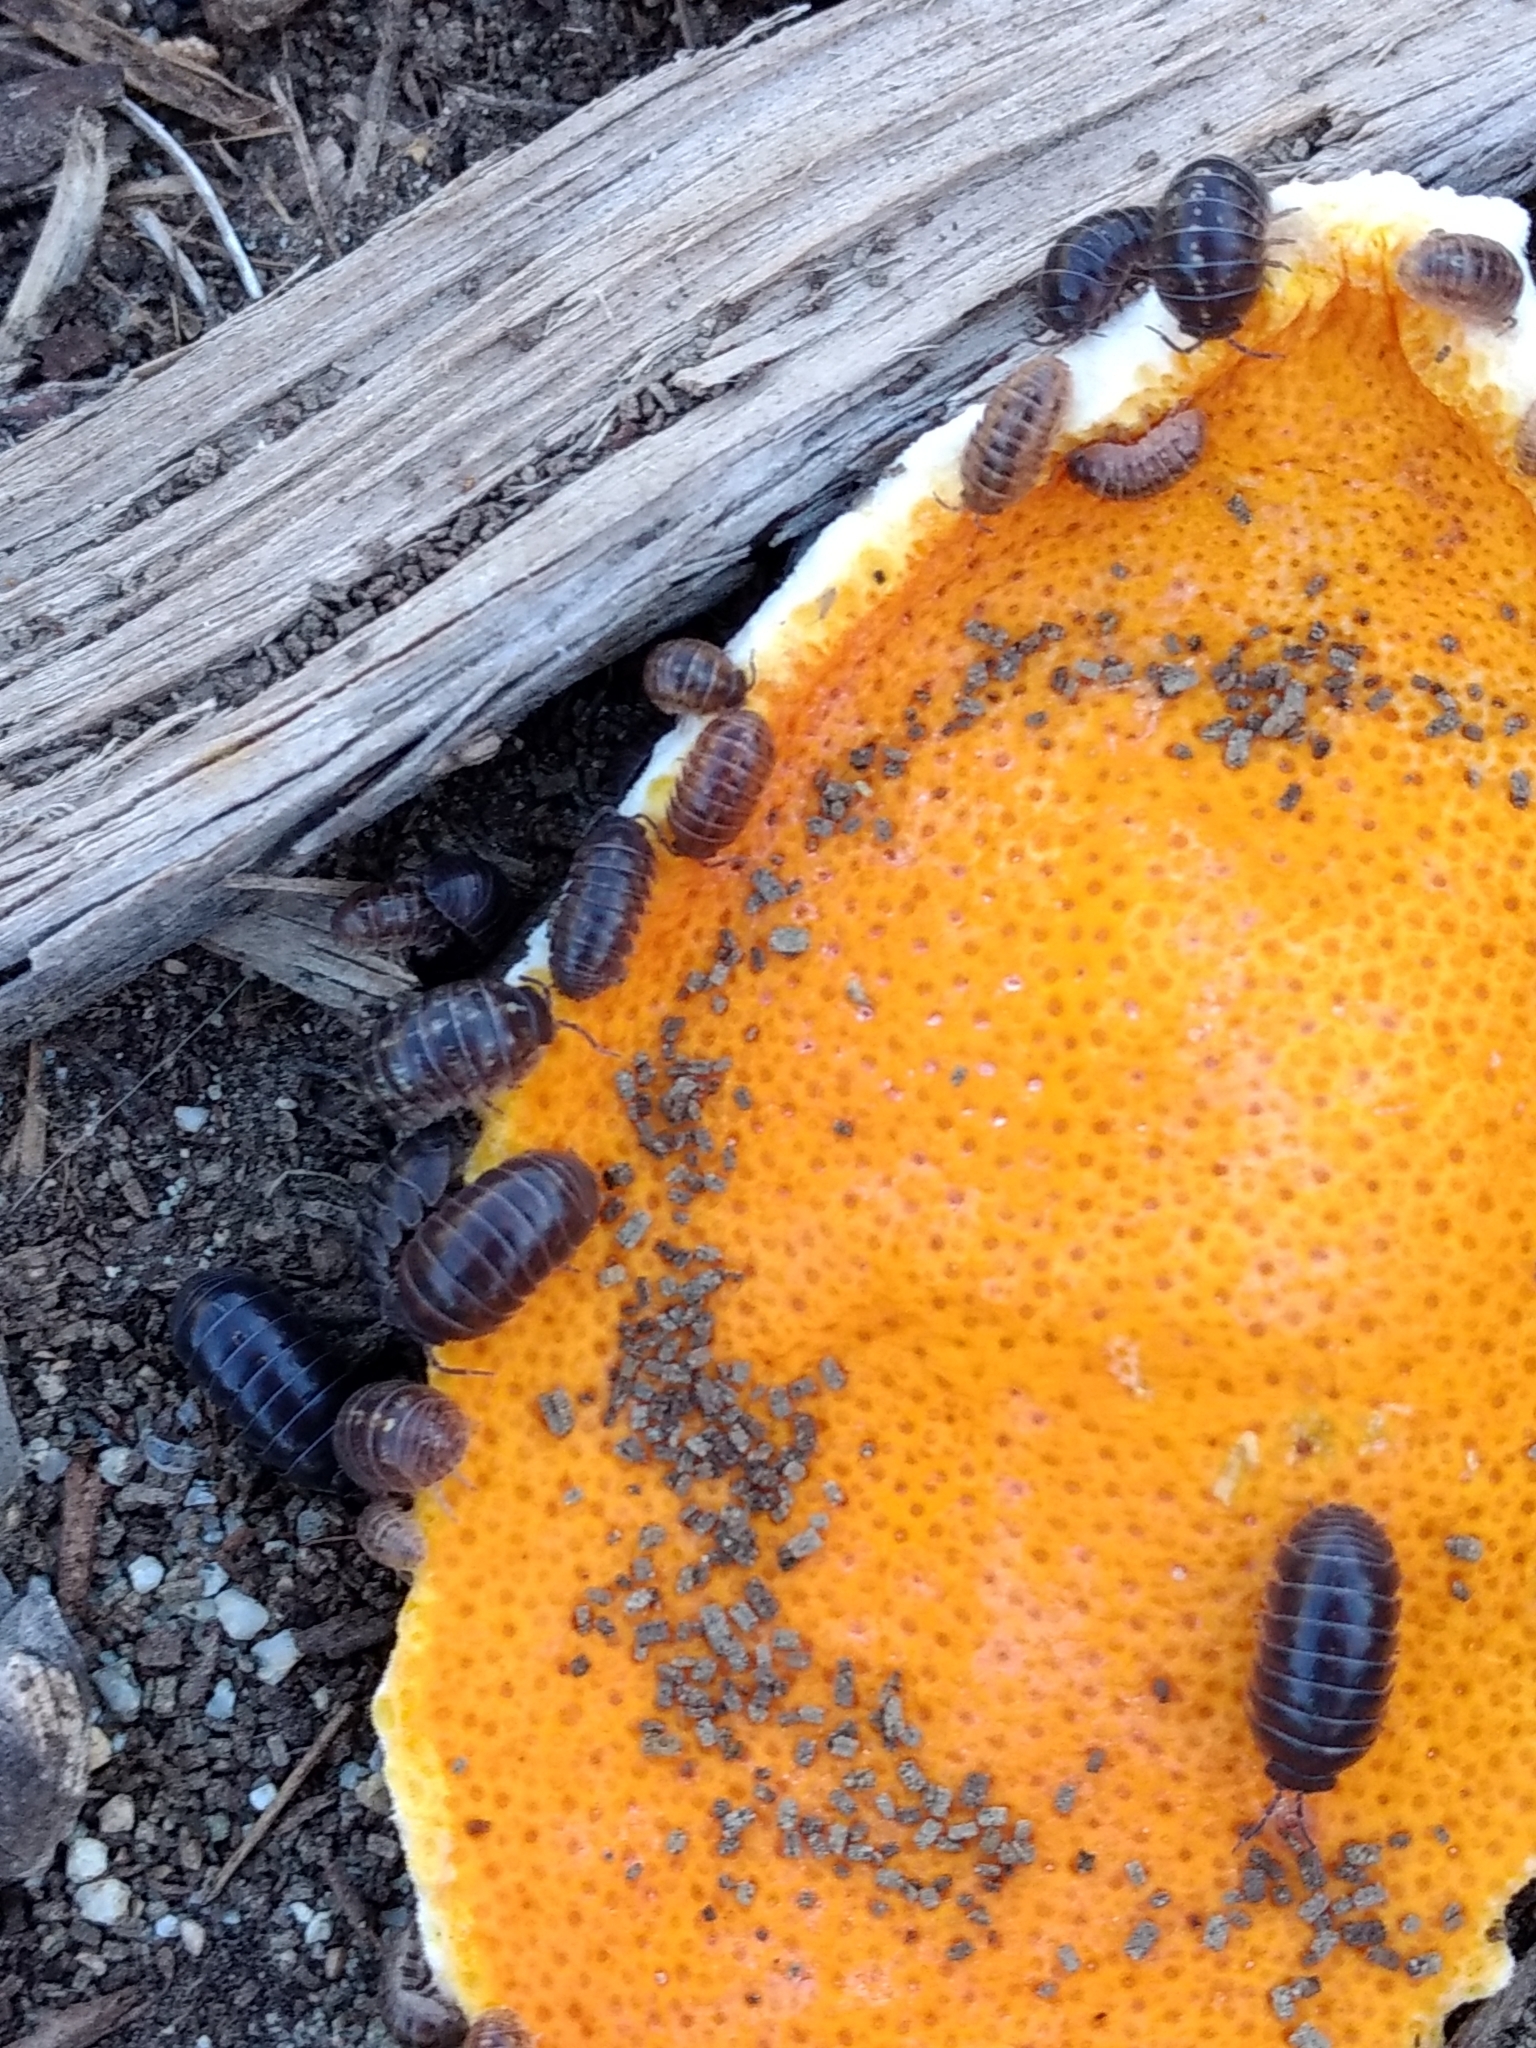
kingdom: Animalia
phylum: Arthropoda
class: Malacostraca
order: Isopoda
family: Armadillidiidae
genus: Armadillidium
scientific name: Armadillidium vulgare
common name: Common pill woodlouse
